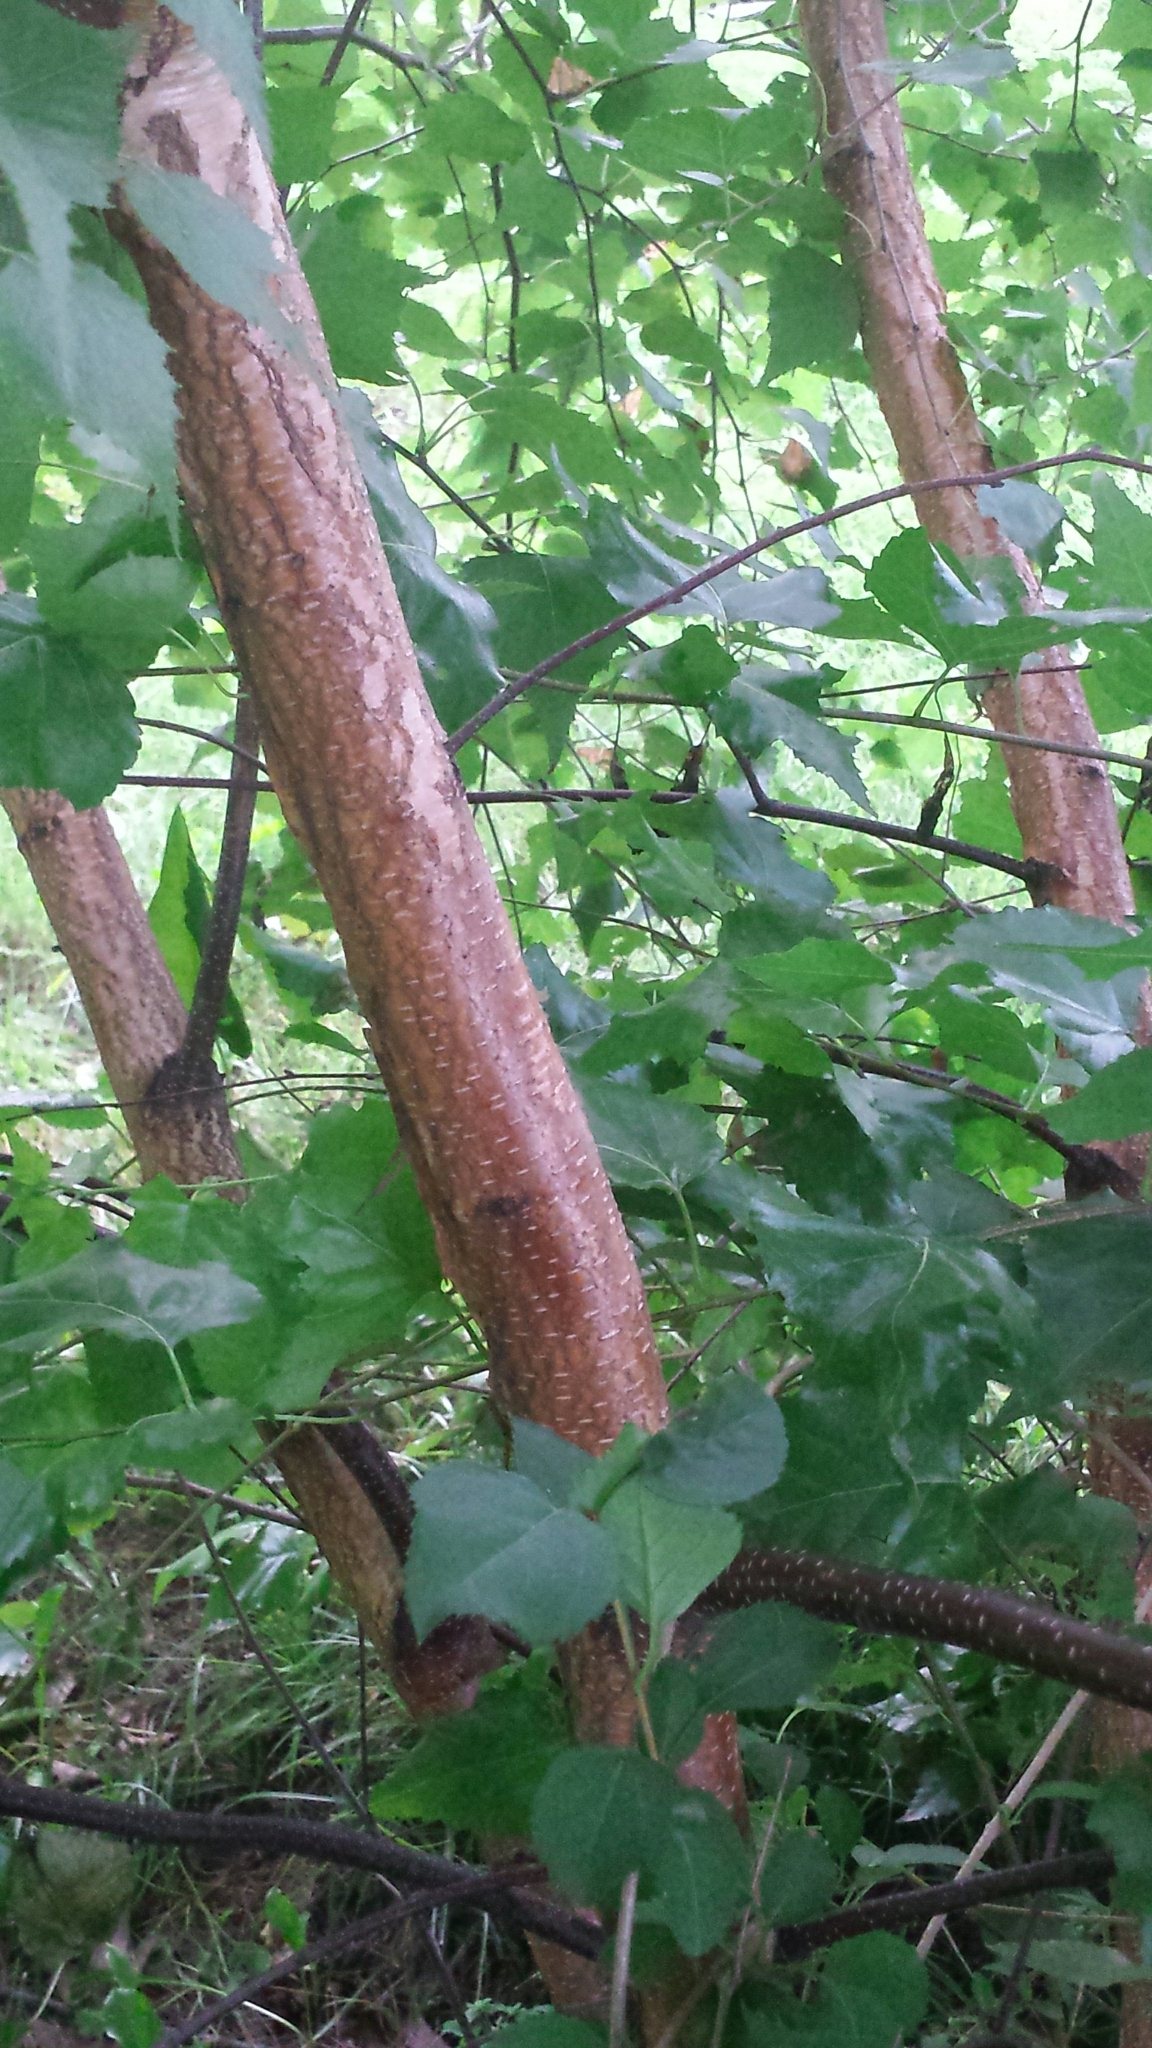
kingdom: Plantae
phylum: Tracheophyta
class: Magnoliopsida
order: Fagales
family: Betulaceae
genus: Betula
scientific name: Betula populifolia
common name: Fire birch
